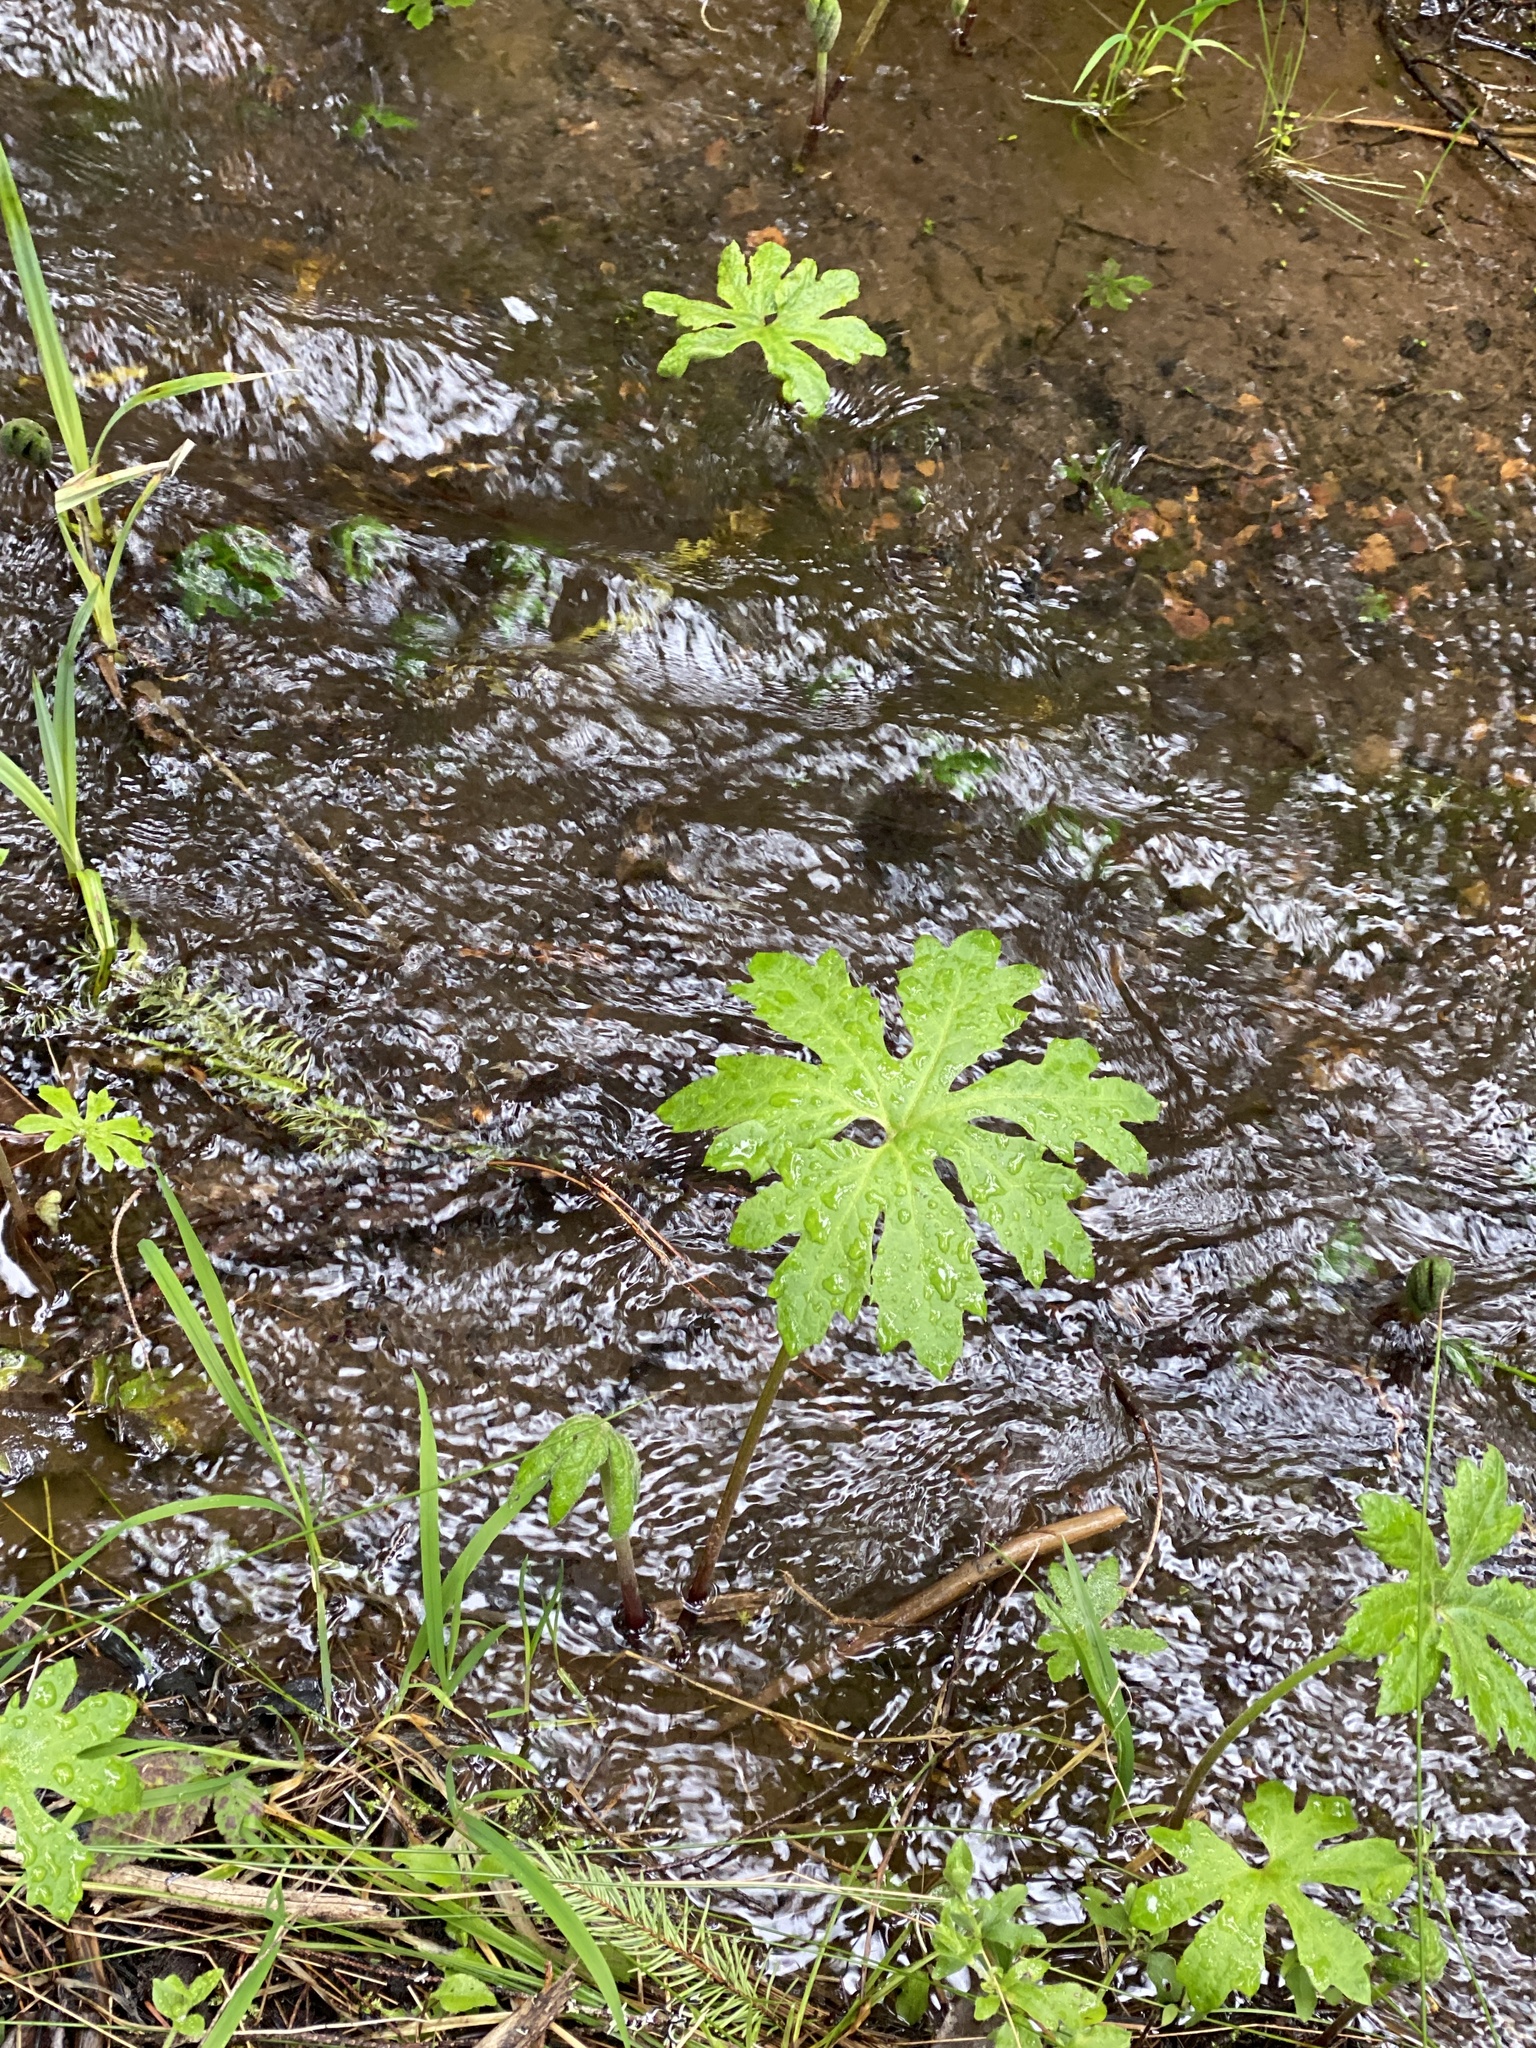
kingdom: Plantae
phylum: Tracheophyta
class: Magnoliopsida
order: Asterales
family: Asteraceae
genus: Petasites
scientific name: Petasites frigidus
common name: Arctic butterbur
